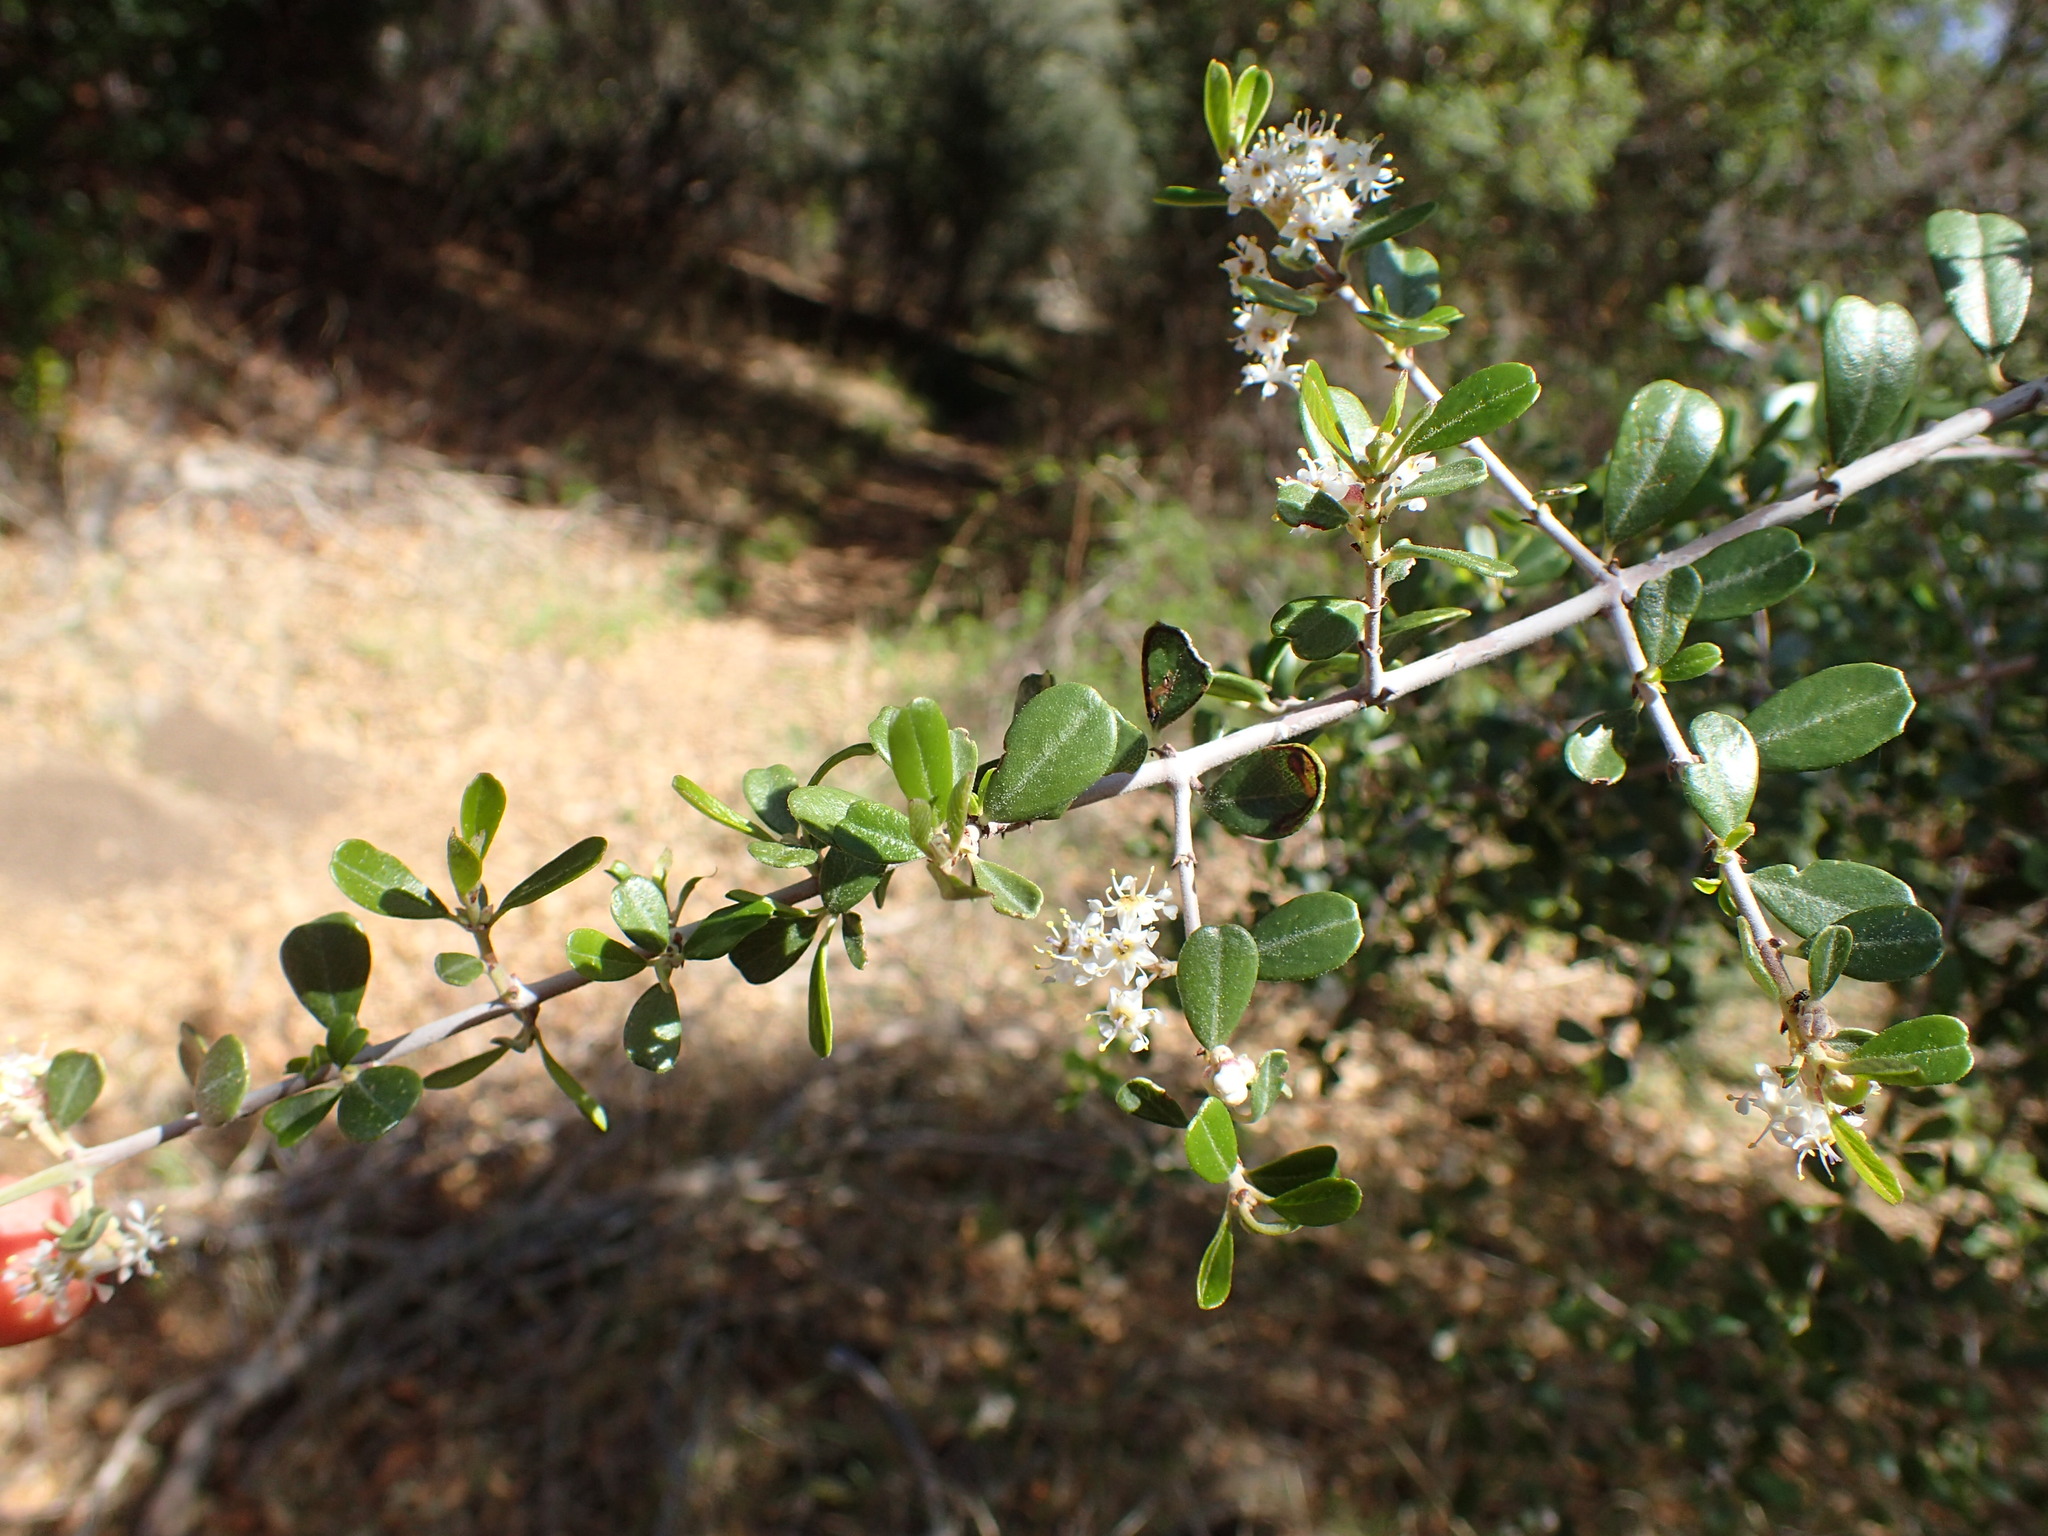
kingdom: Plantae
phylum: Tracheophyta
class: Magnoliopsida
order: Rosales
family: Rhamnaceae
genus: Ceanothus
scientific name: Ceanothus cuneatus
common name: Cuneate ceanothus
